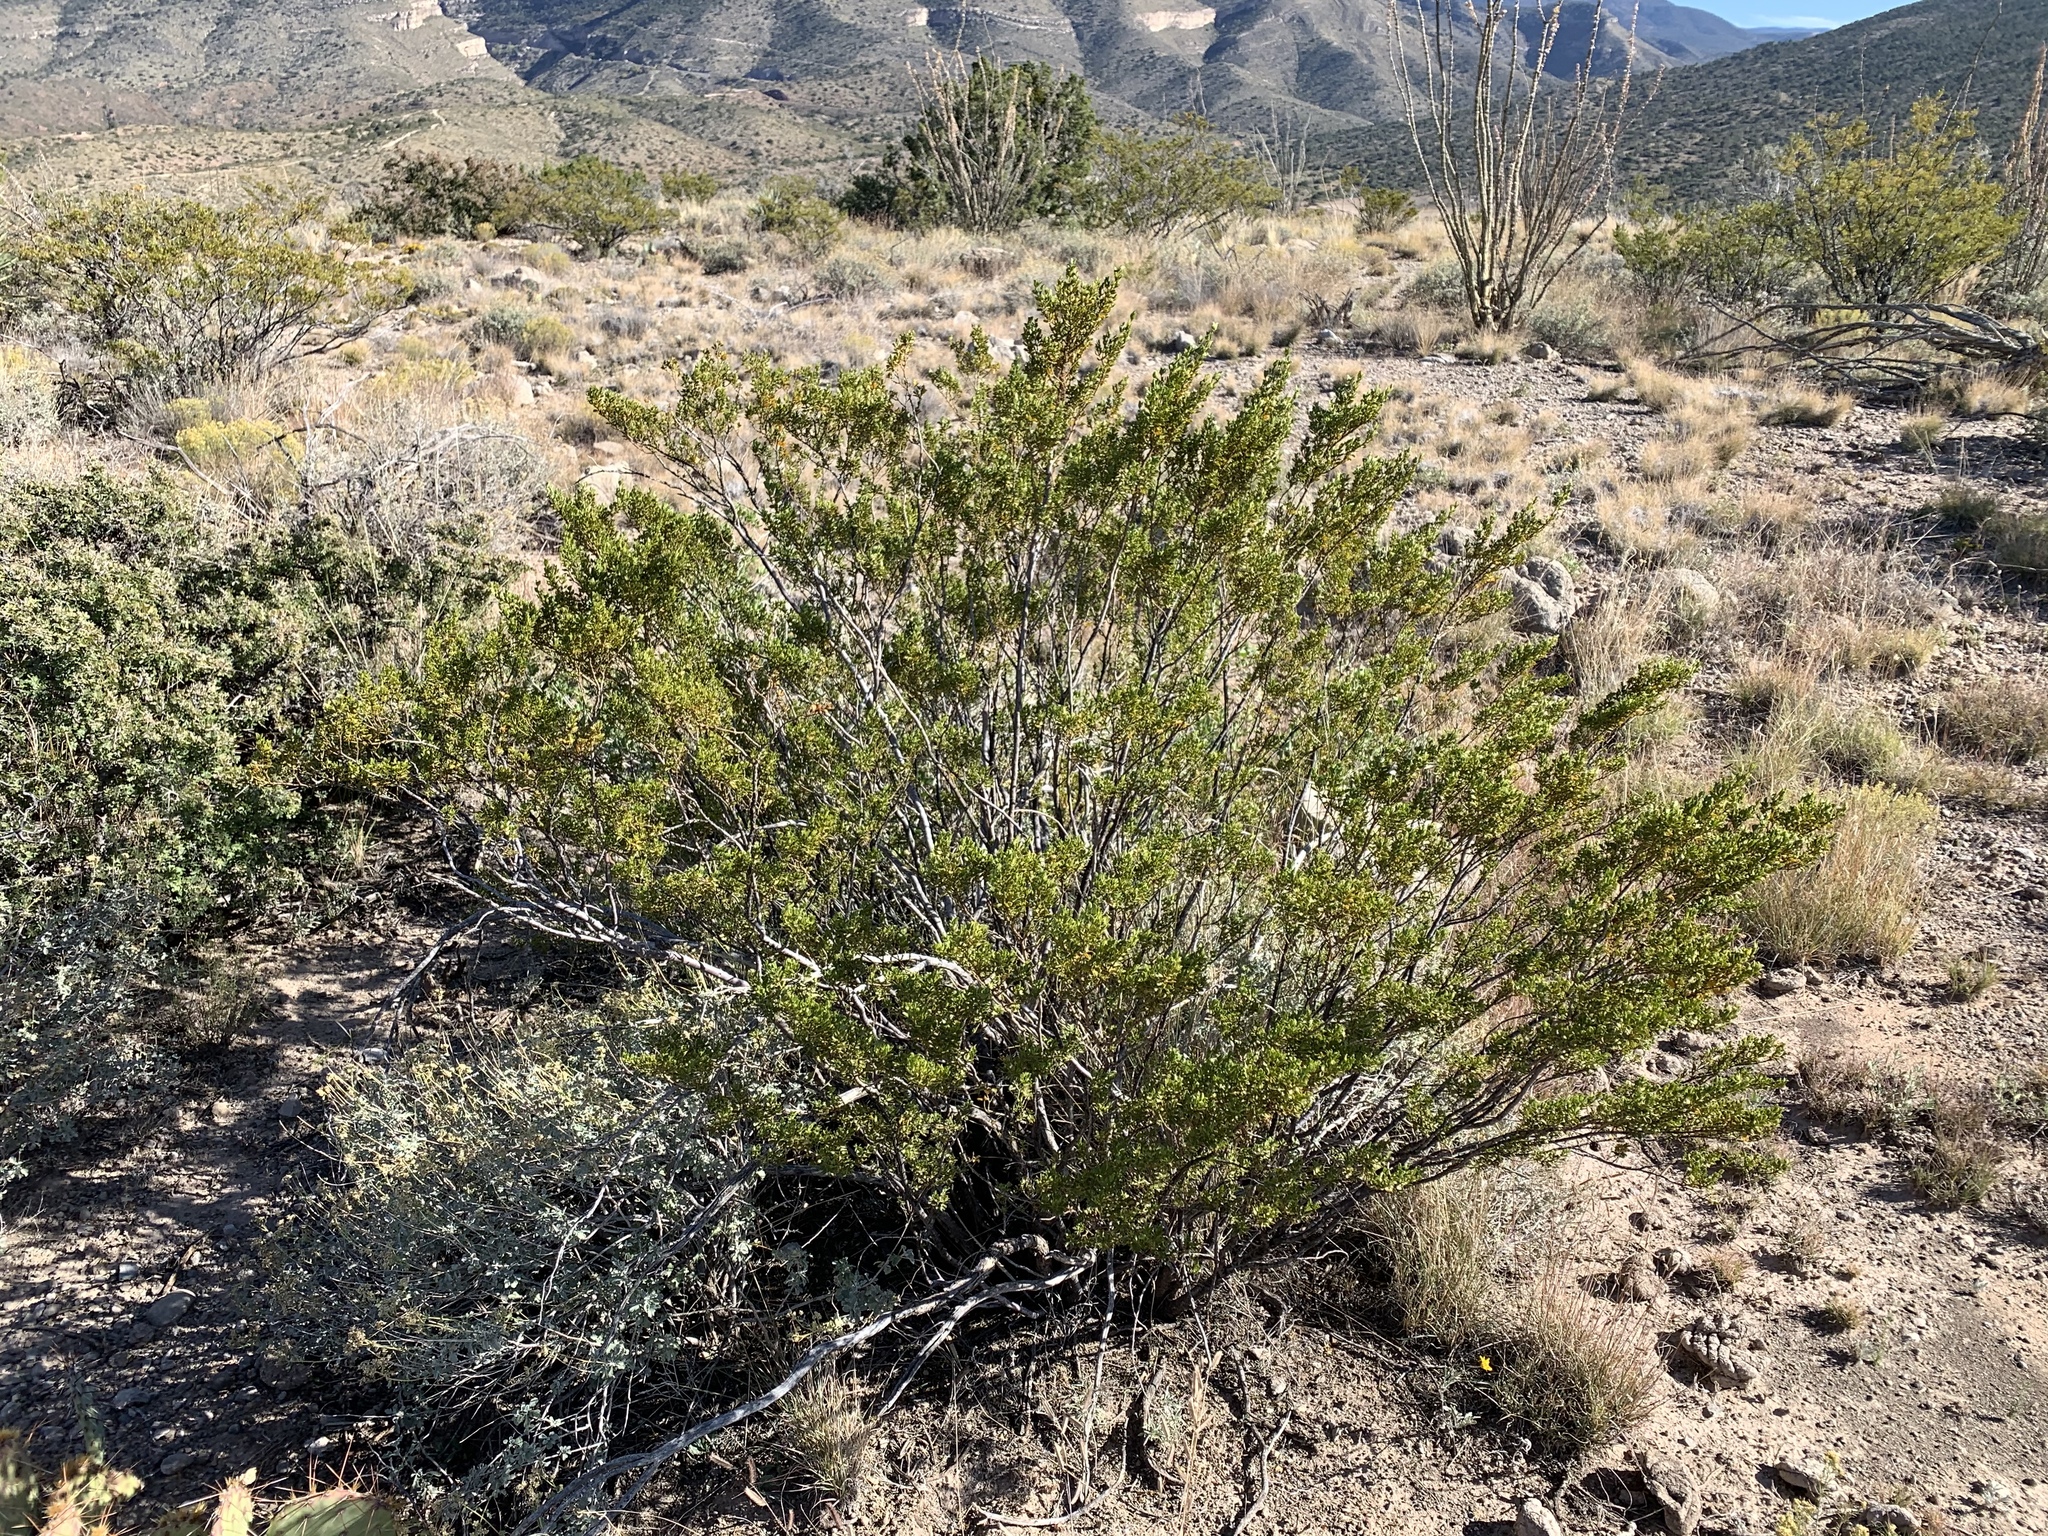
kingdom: Plantae
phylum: Tracheophyta
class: Magnoliopsida
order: Zygophyllales
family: Zygophyllaceae
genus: Larrea
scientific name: Larrea tridentata
